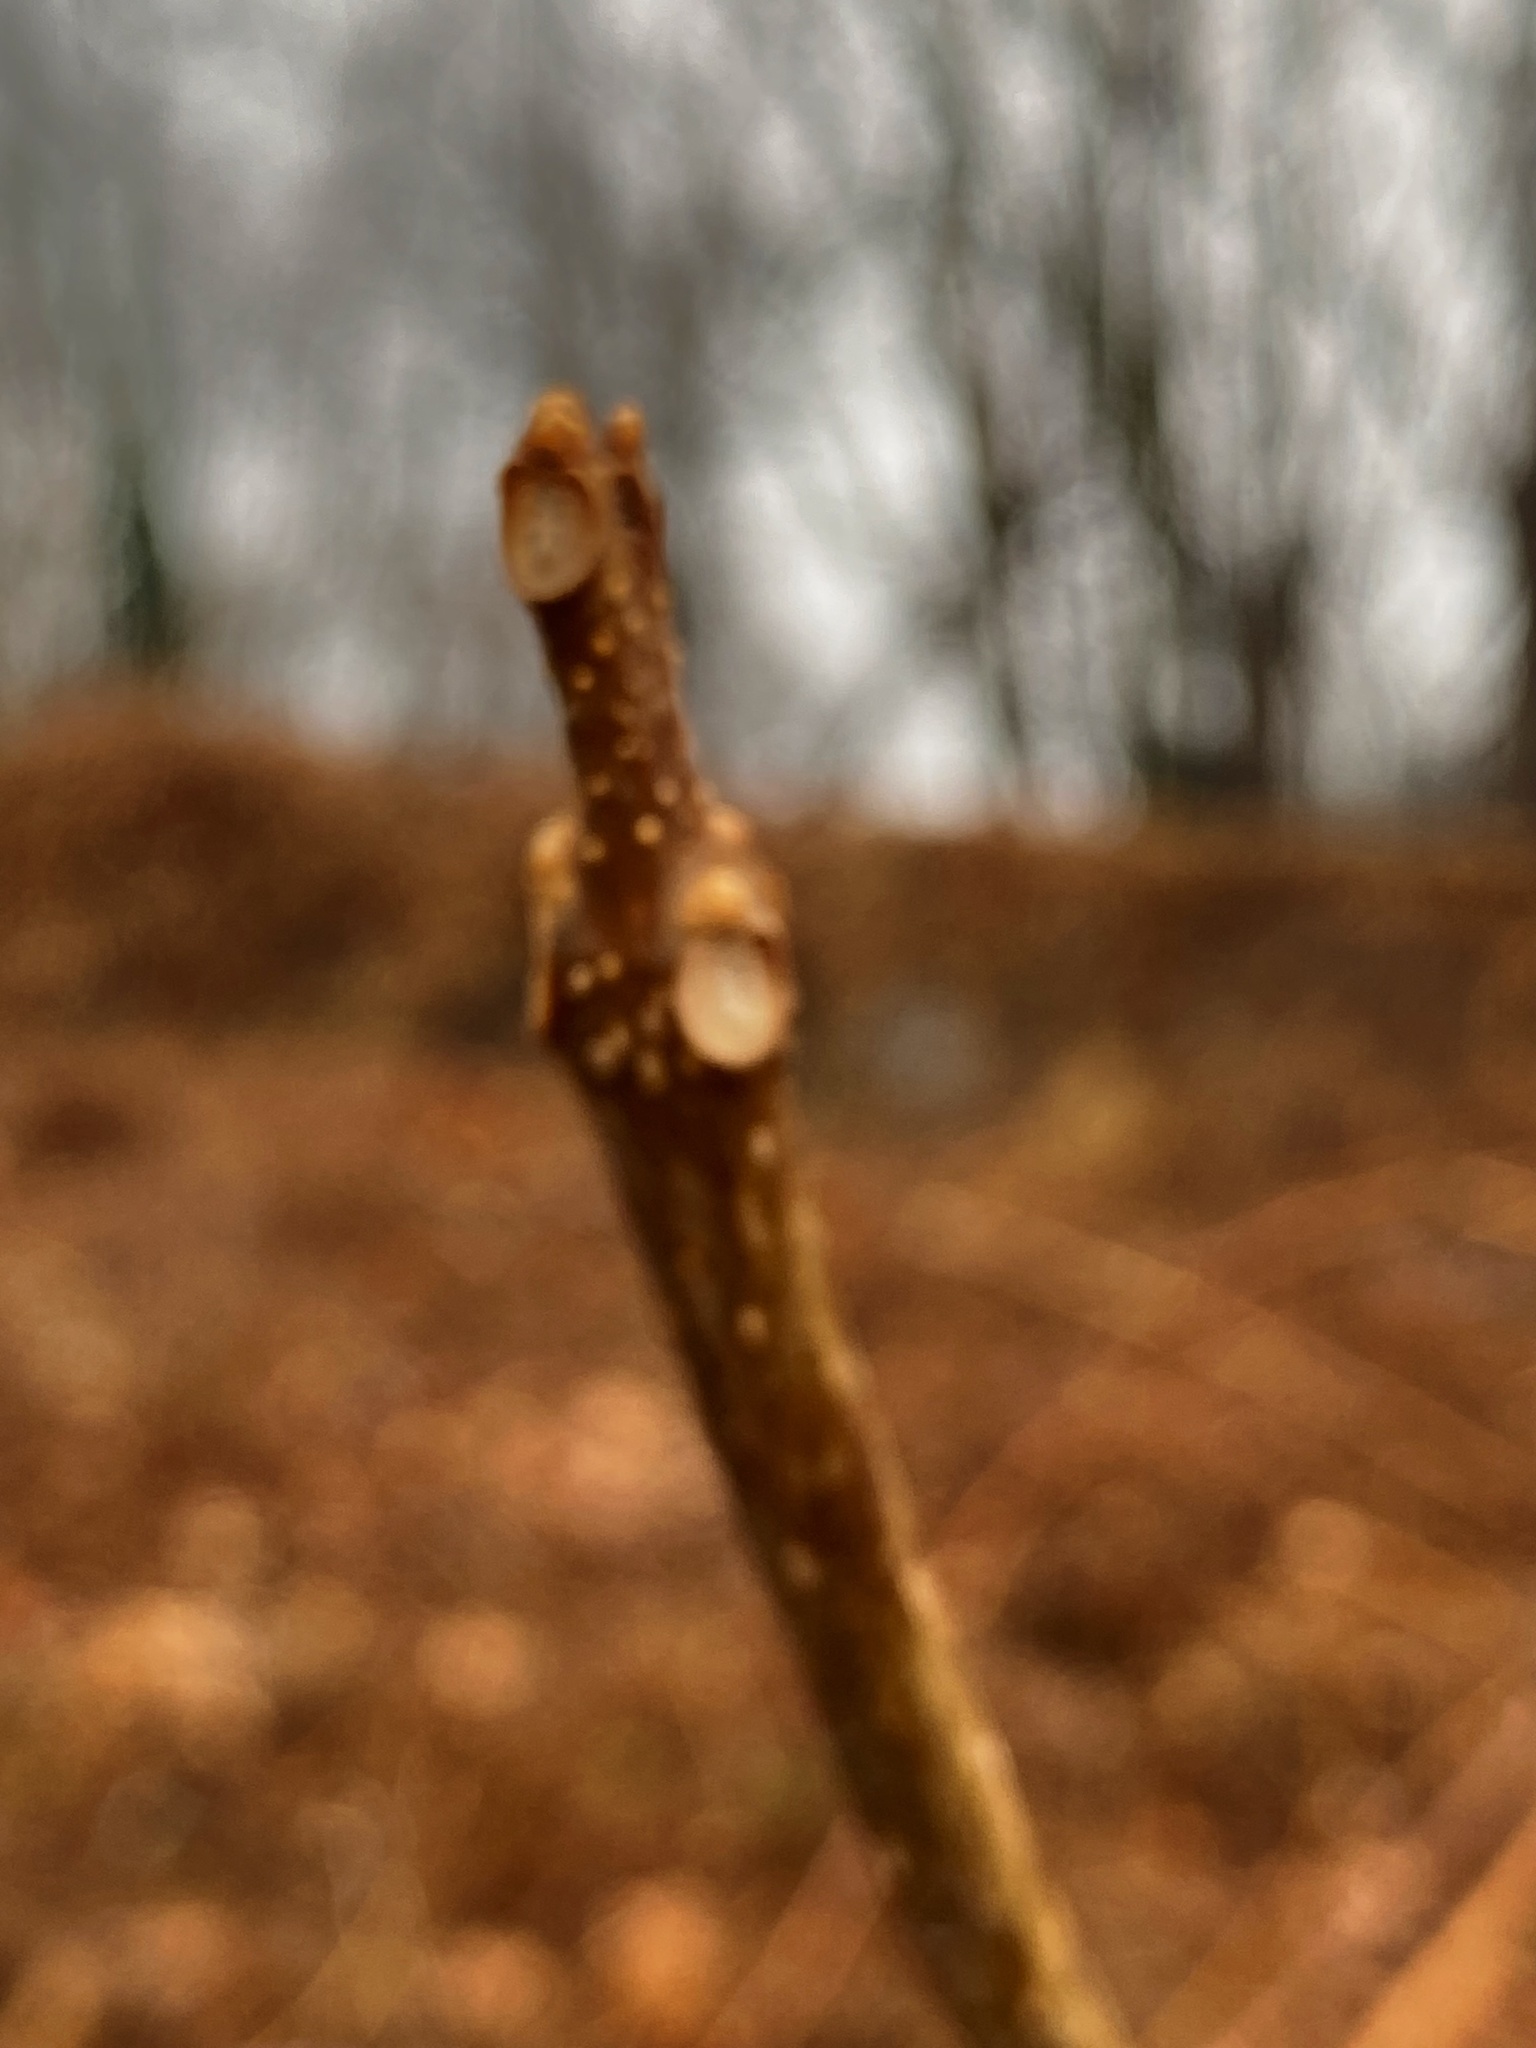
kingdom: Plantae
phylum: Tracheophyta
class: Magnoliopsida
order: Lamiales
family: Bignoniaceae
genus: Catalpa
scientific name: Catalpa
